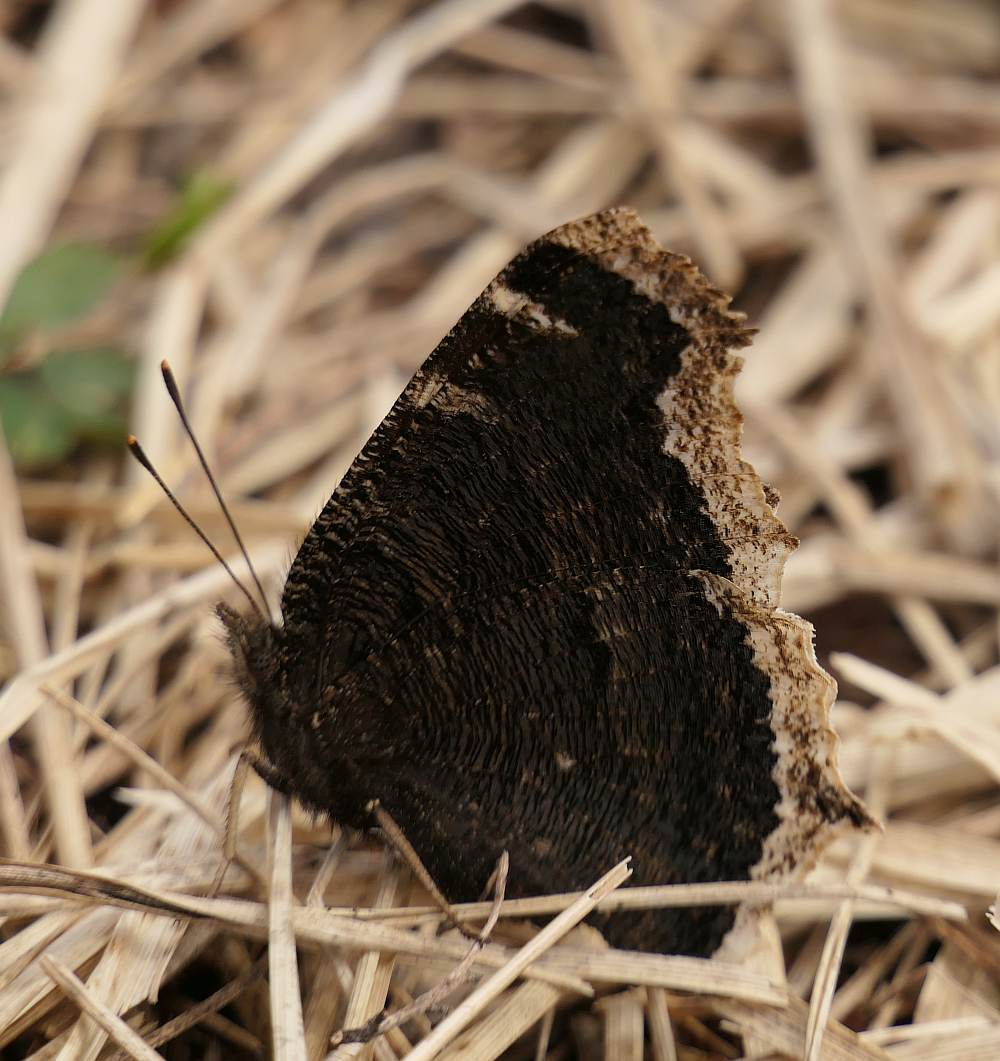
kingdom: Animalia
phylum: Arthropoda
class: Insecta
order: Lepidoptera
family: Nymphalidae
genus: Nymphalis
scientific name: Nymphalis antiopa
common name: Camberwell beauty
